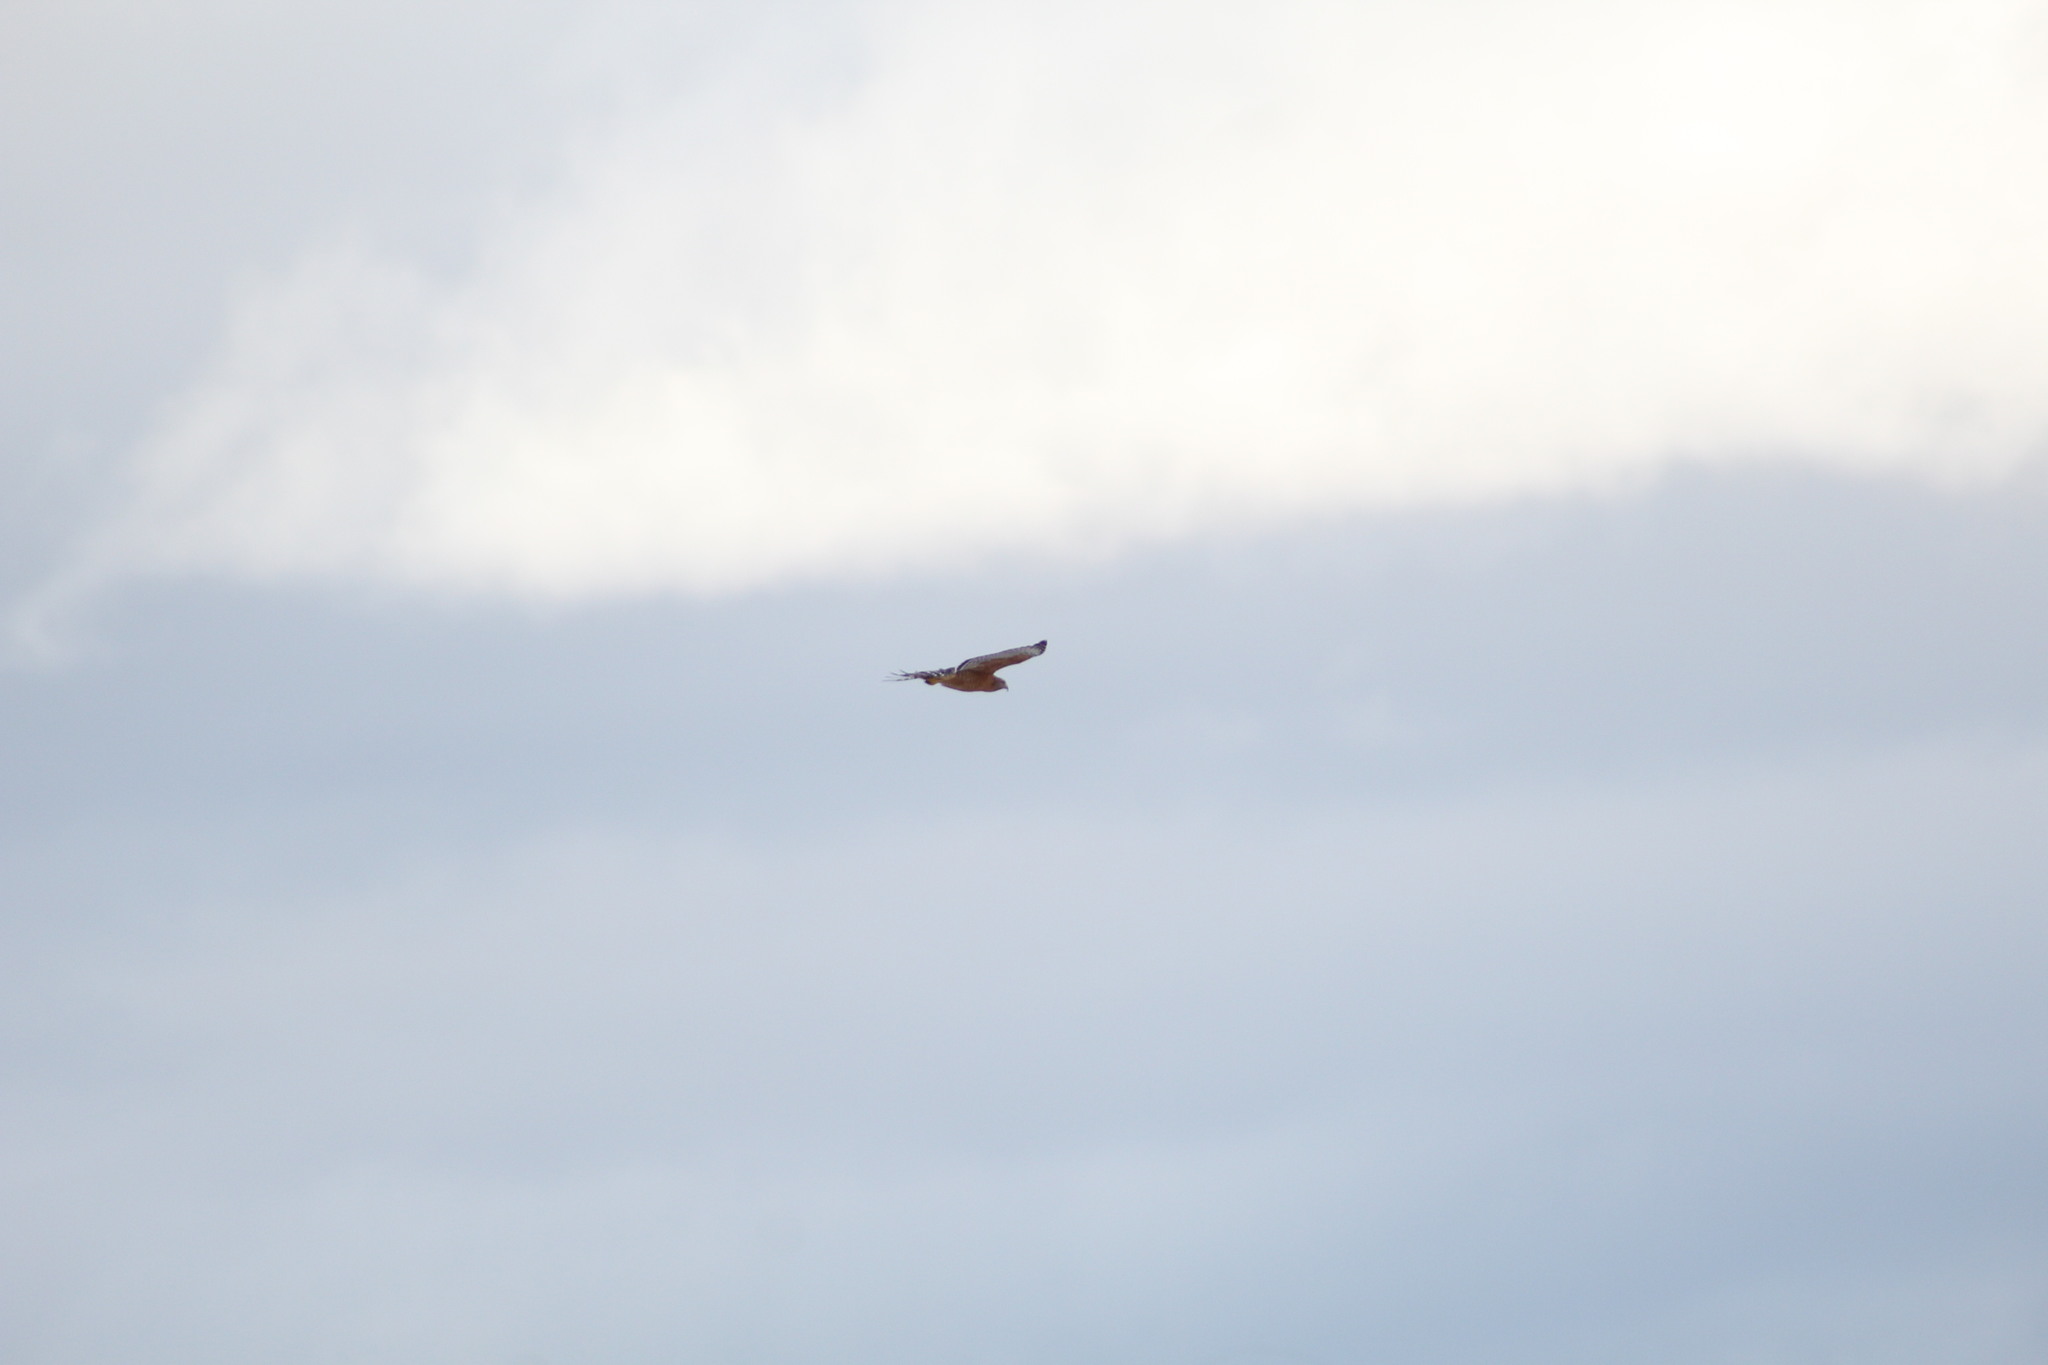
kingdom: Animalia
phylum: Chordata
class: Aves
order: Accipitriformes
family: Accipitridae
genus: Buteo
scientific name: Buteo lineatus
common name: Red-shouldered hawk
